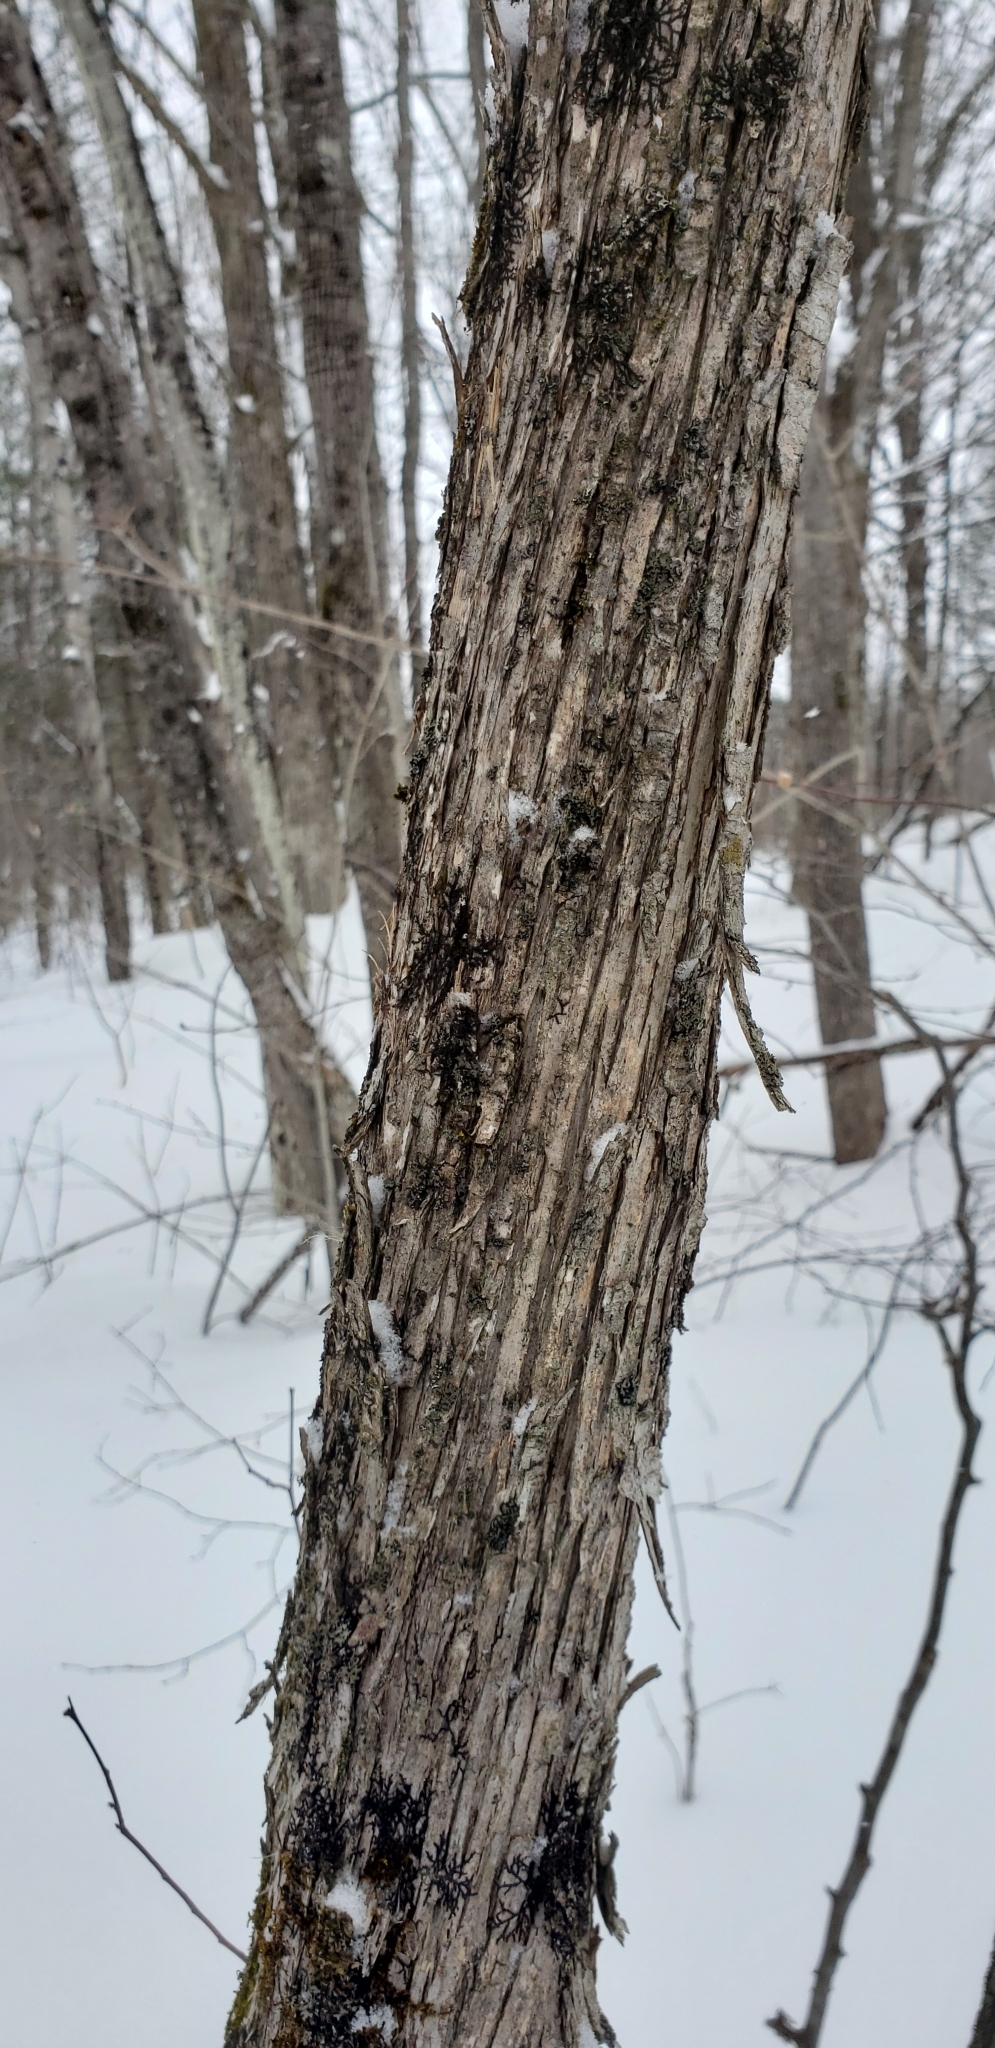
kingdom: Plantae
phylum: Tracheophyta
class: Magnoliopsida
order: Fagales
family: Betulaceae
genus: Ostrya
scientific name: Ostrya virginiana
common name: Ironwood
